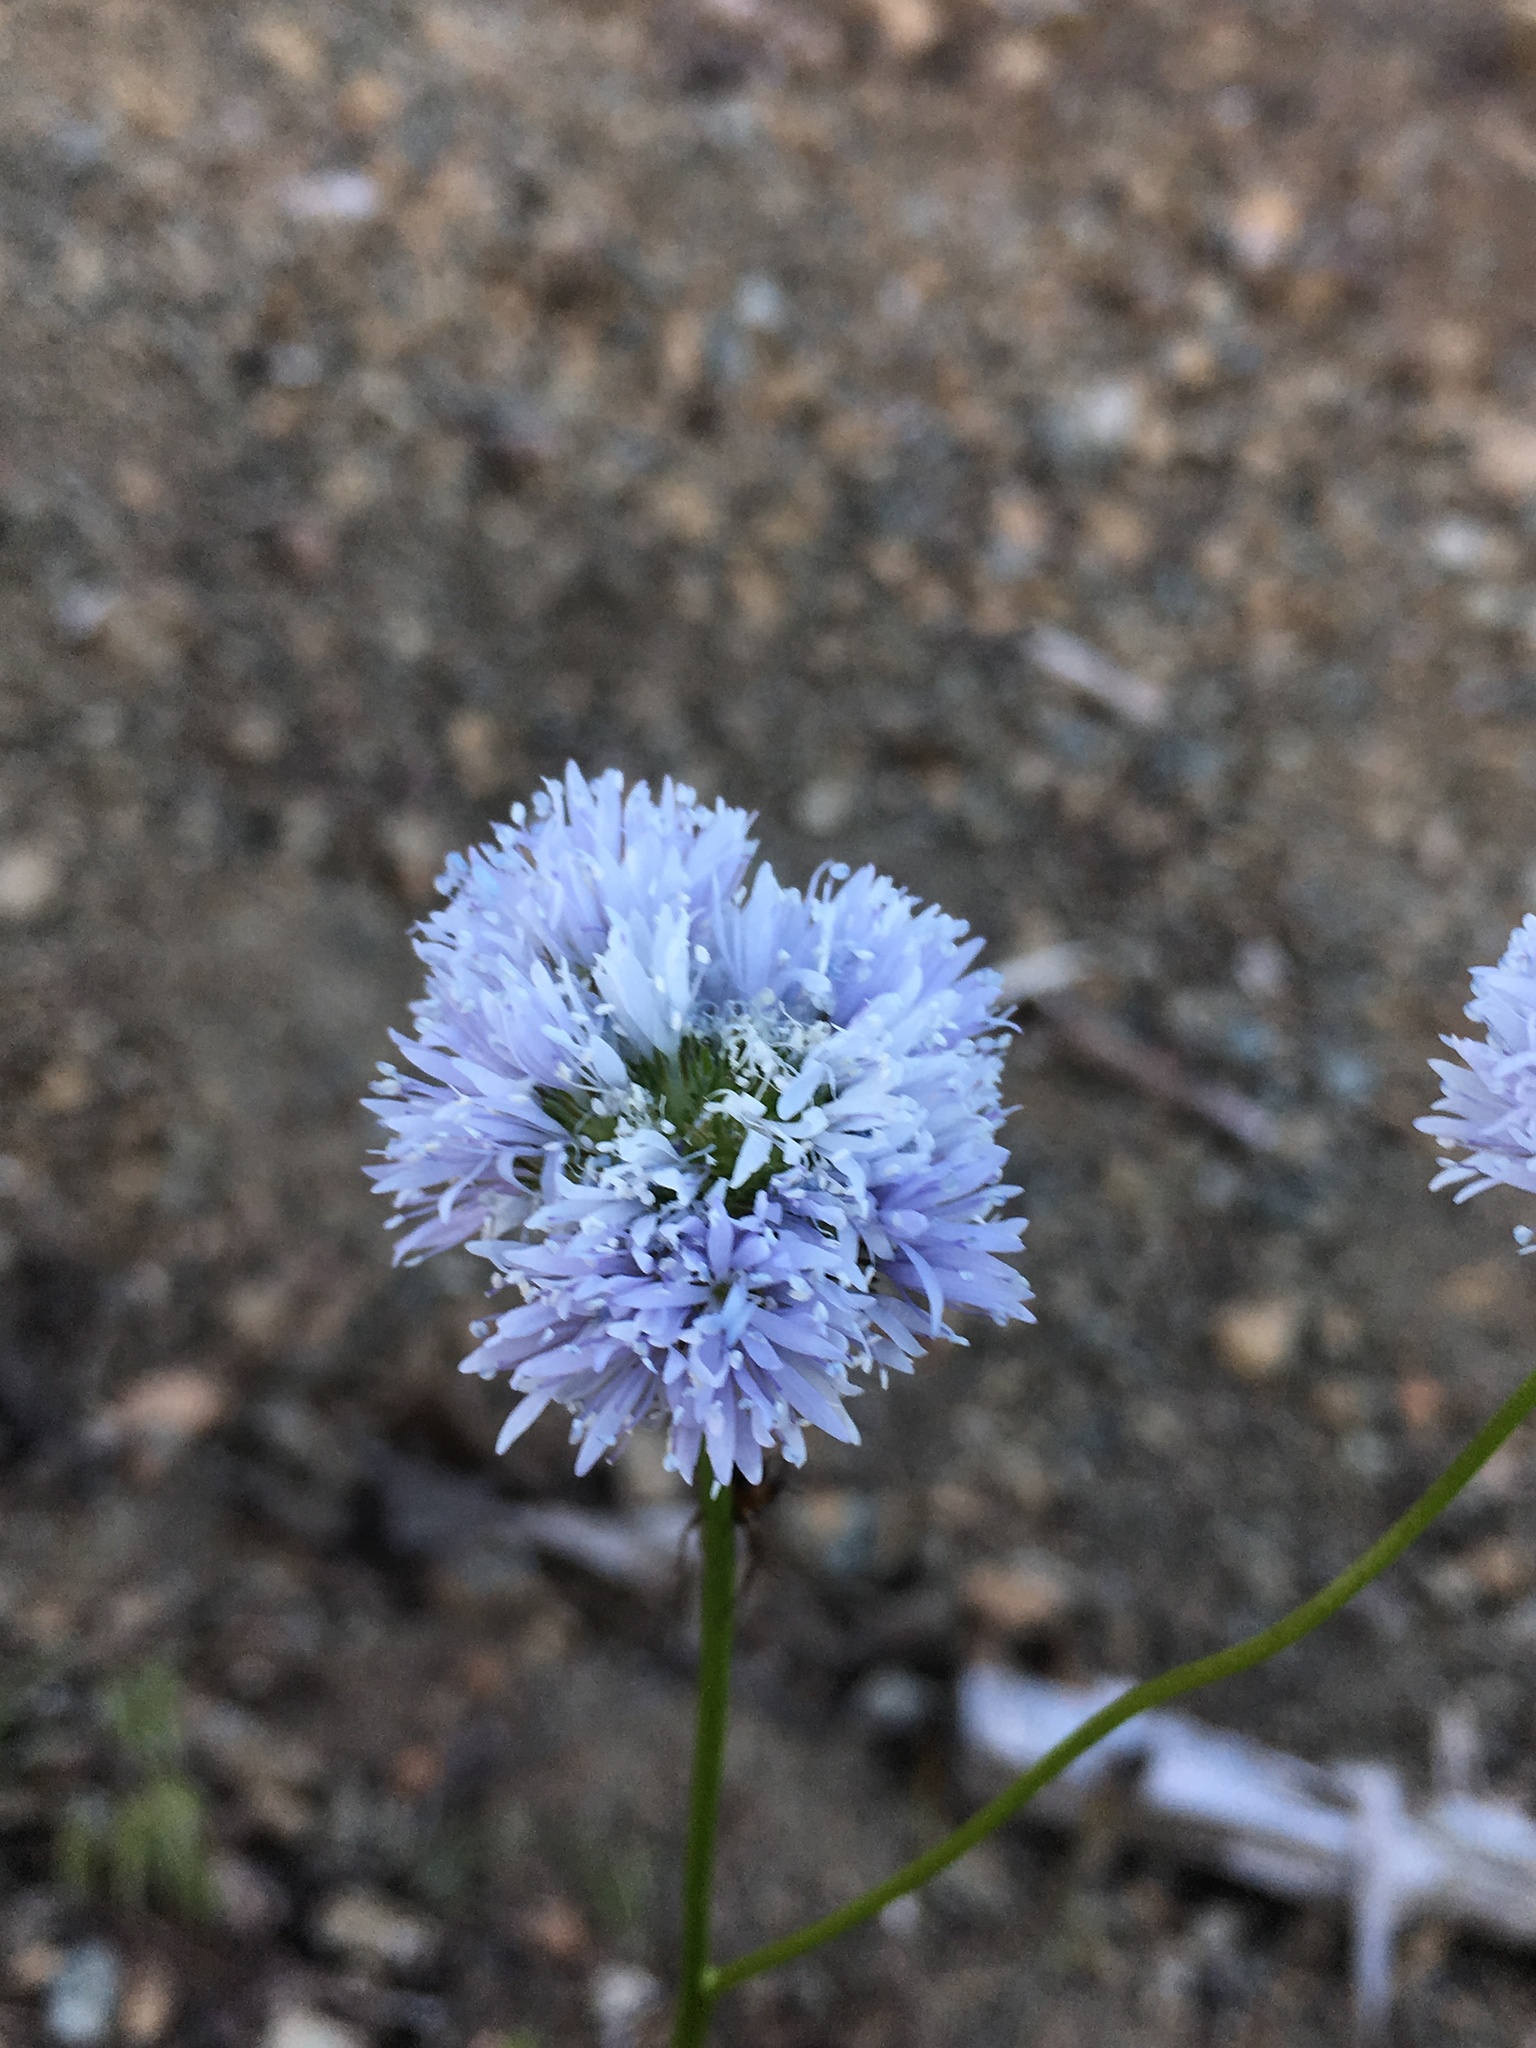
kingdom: Plantae
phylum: Tracheophyta
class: Magnoliopsida
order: Ericales
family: Polemoniaceae
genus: Gilia
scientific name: Gilia capitata
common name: Bluehead gilia
